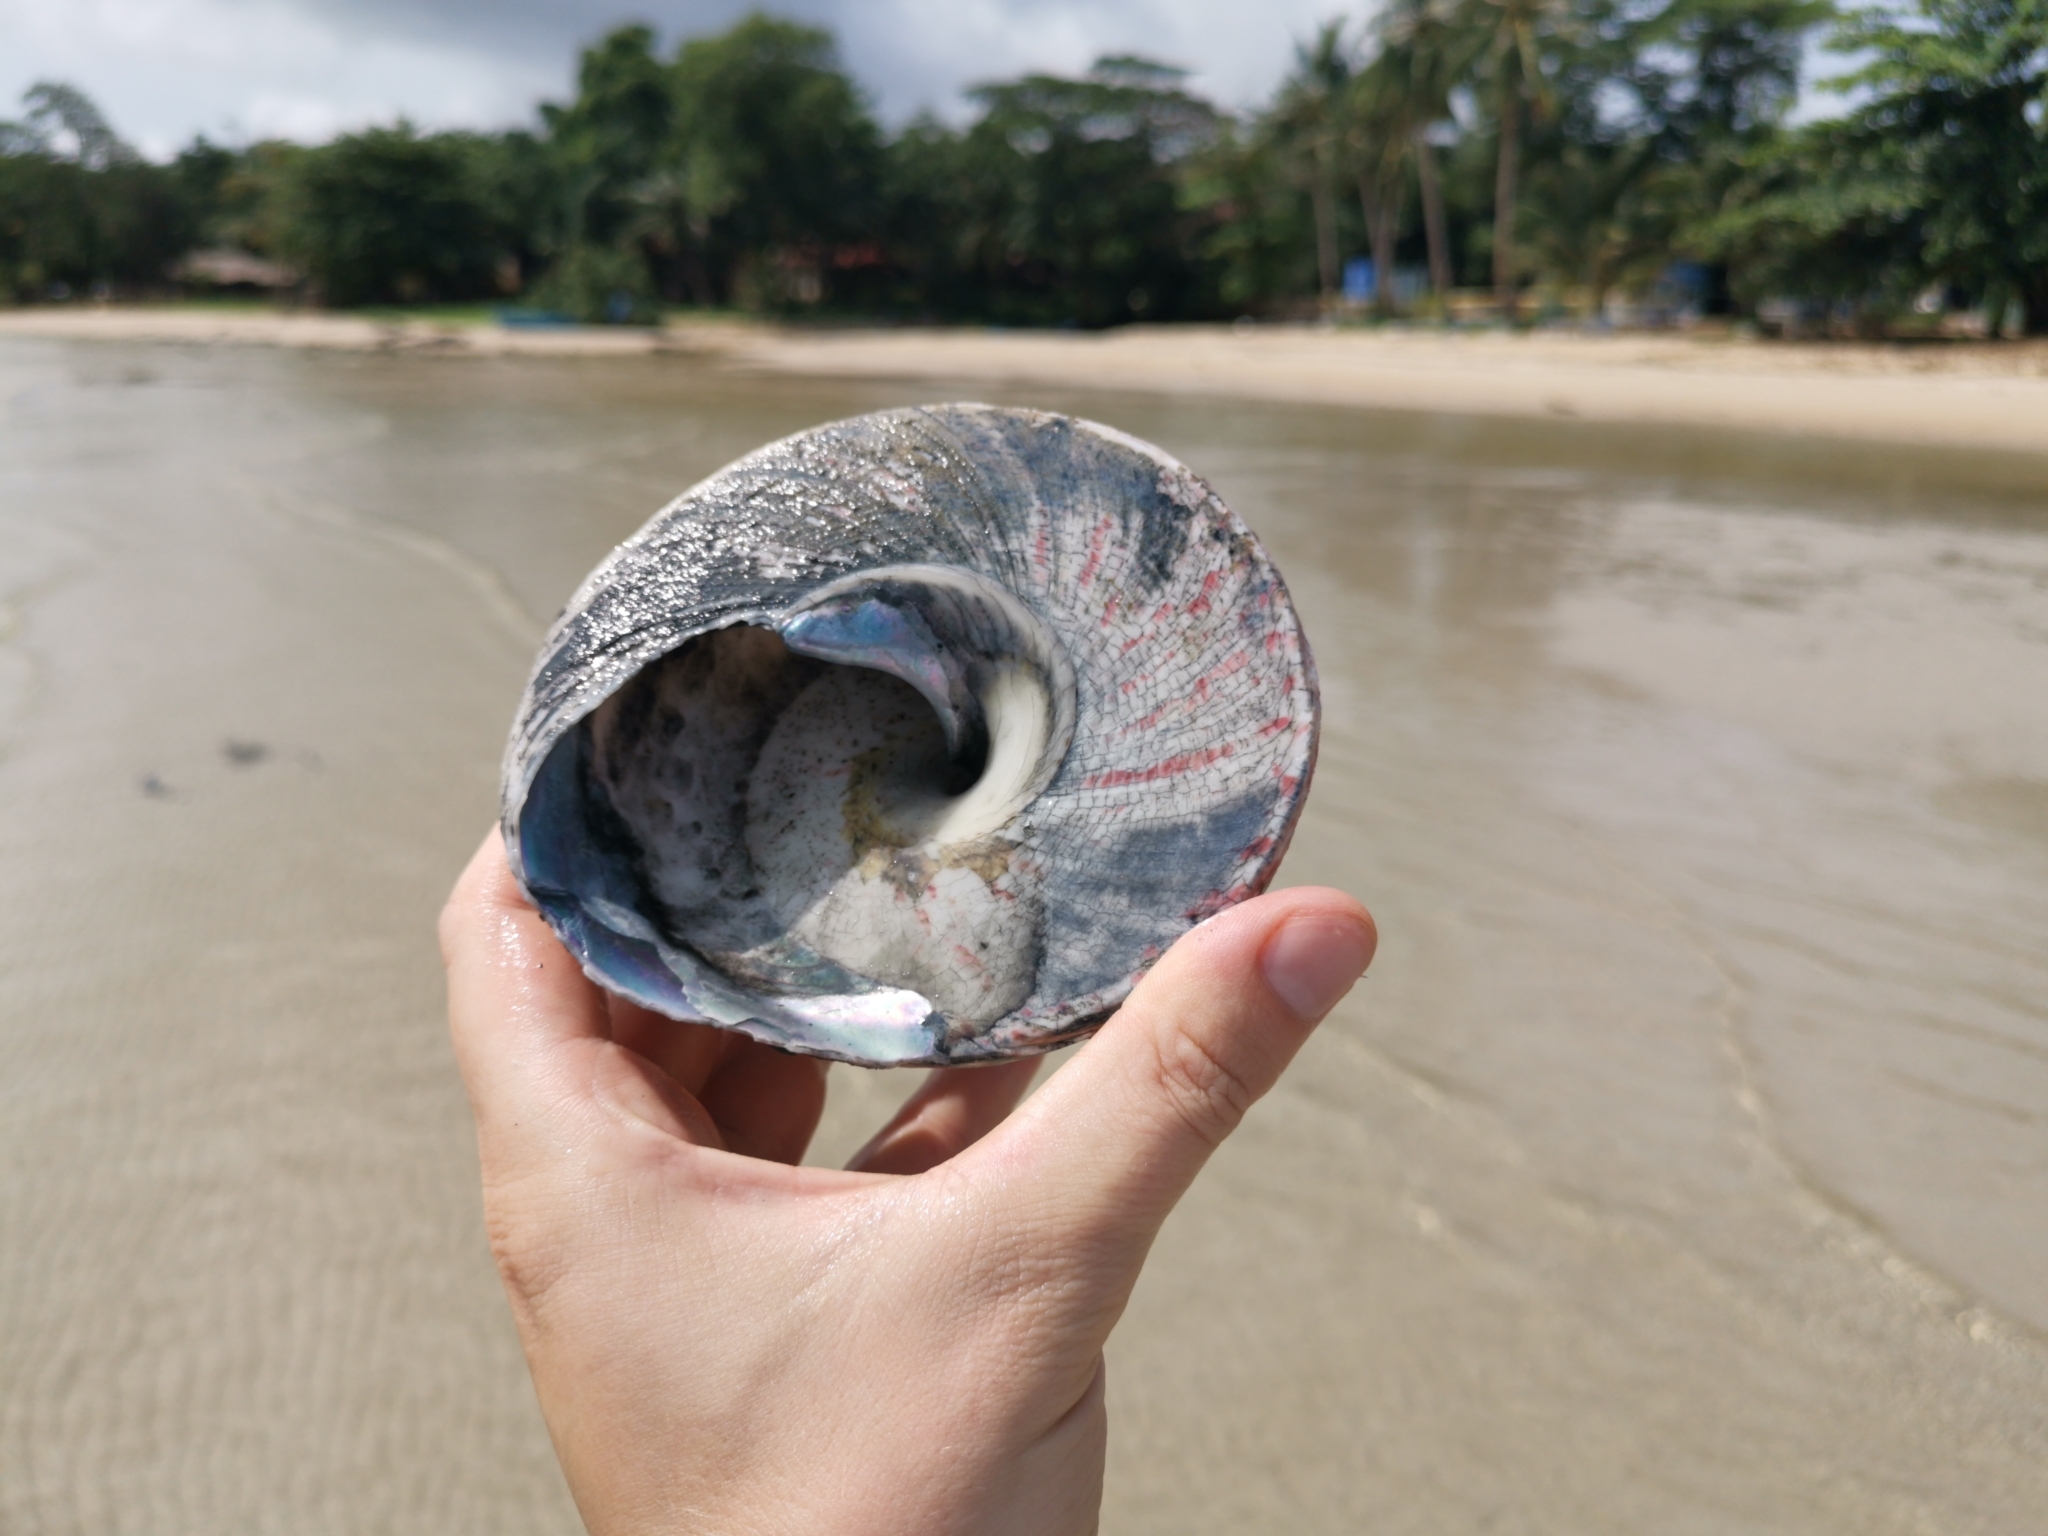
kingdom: Animalia
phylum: Mollusca
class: Gastropoda
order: Trochida
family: Tegulidae
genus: Rochia
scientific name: Rochia nilotica
